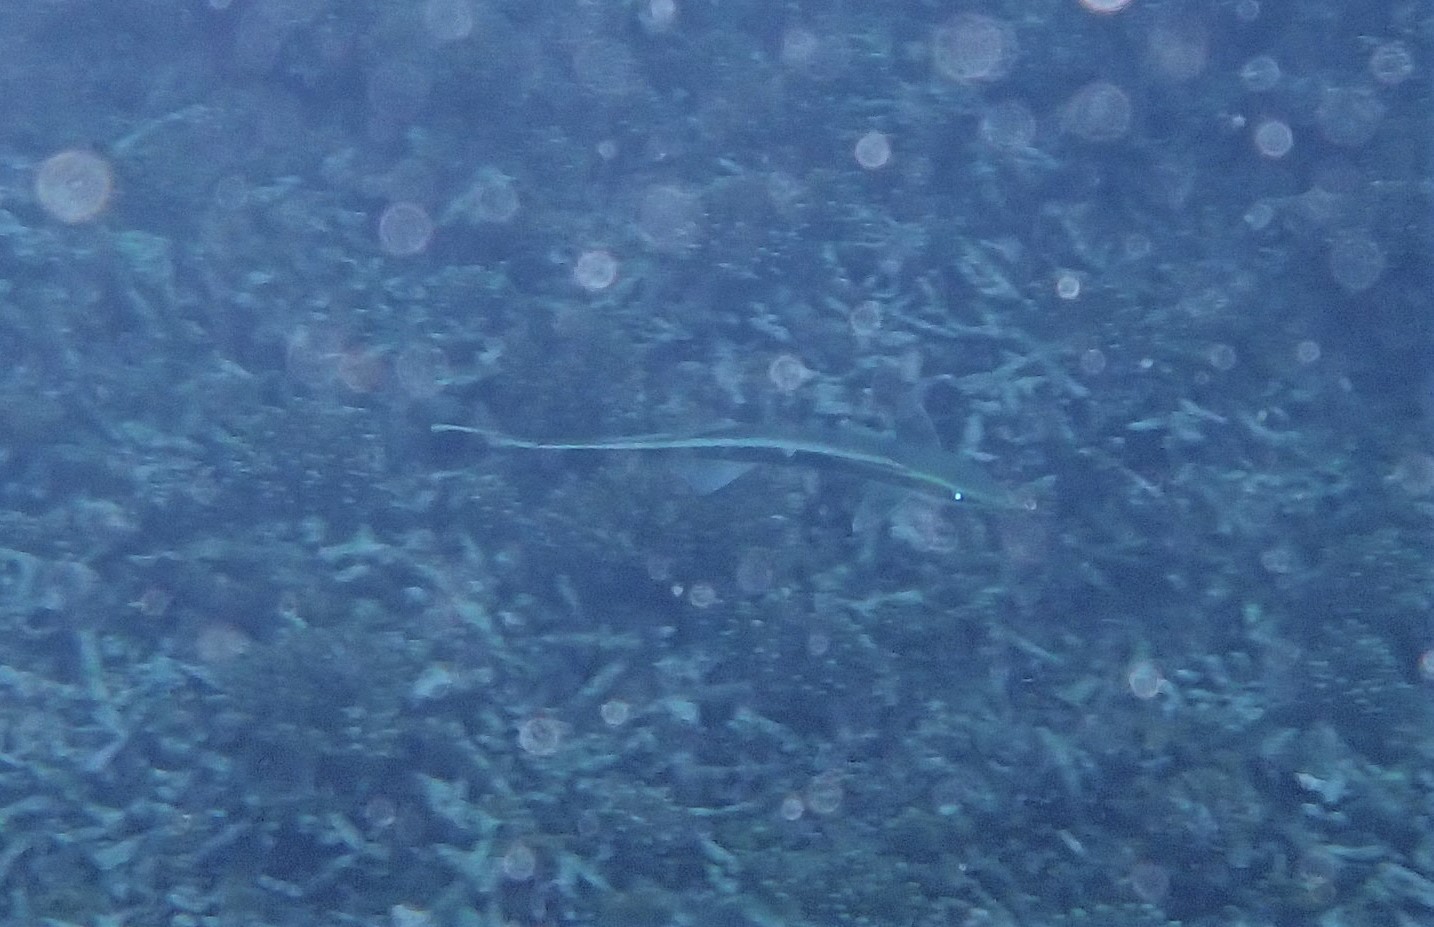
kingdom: Animalia
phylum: Chordata
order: Perciformes
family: Echeneidae
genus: Echeneis
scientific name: Echeneis naucrates
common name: Sharksucker
